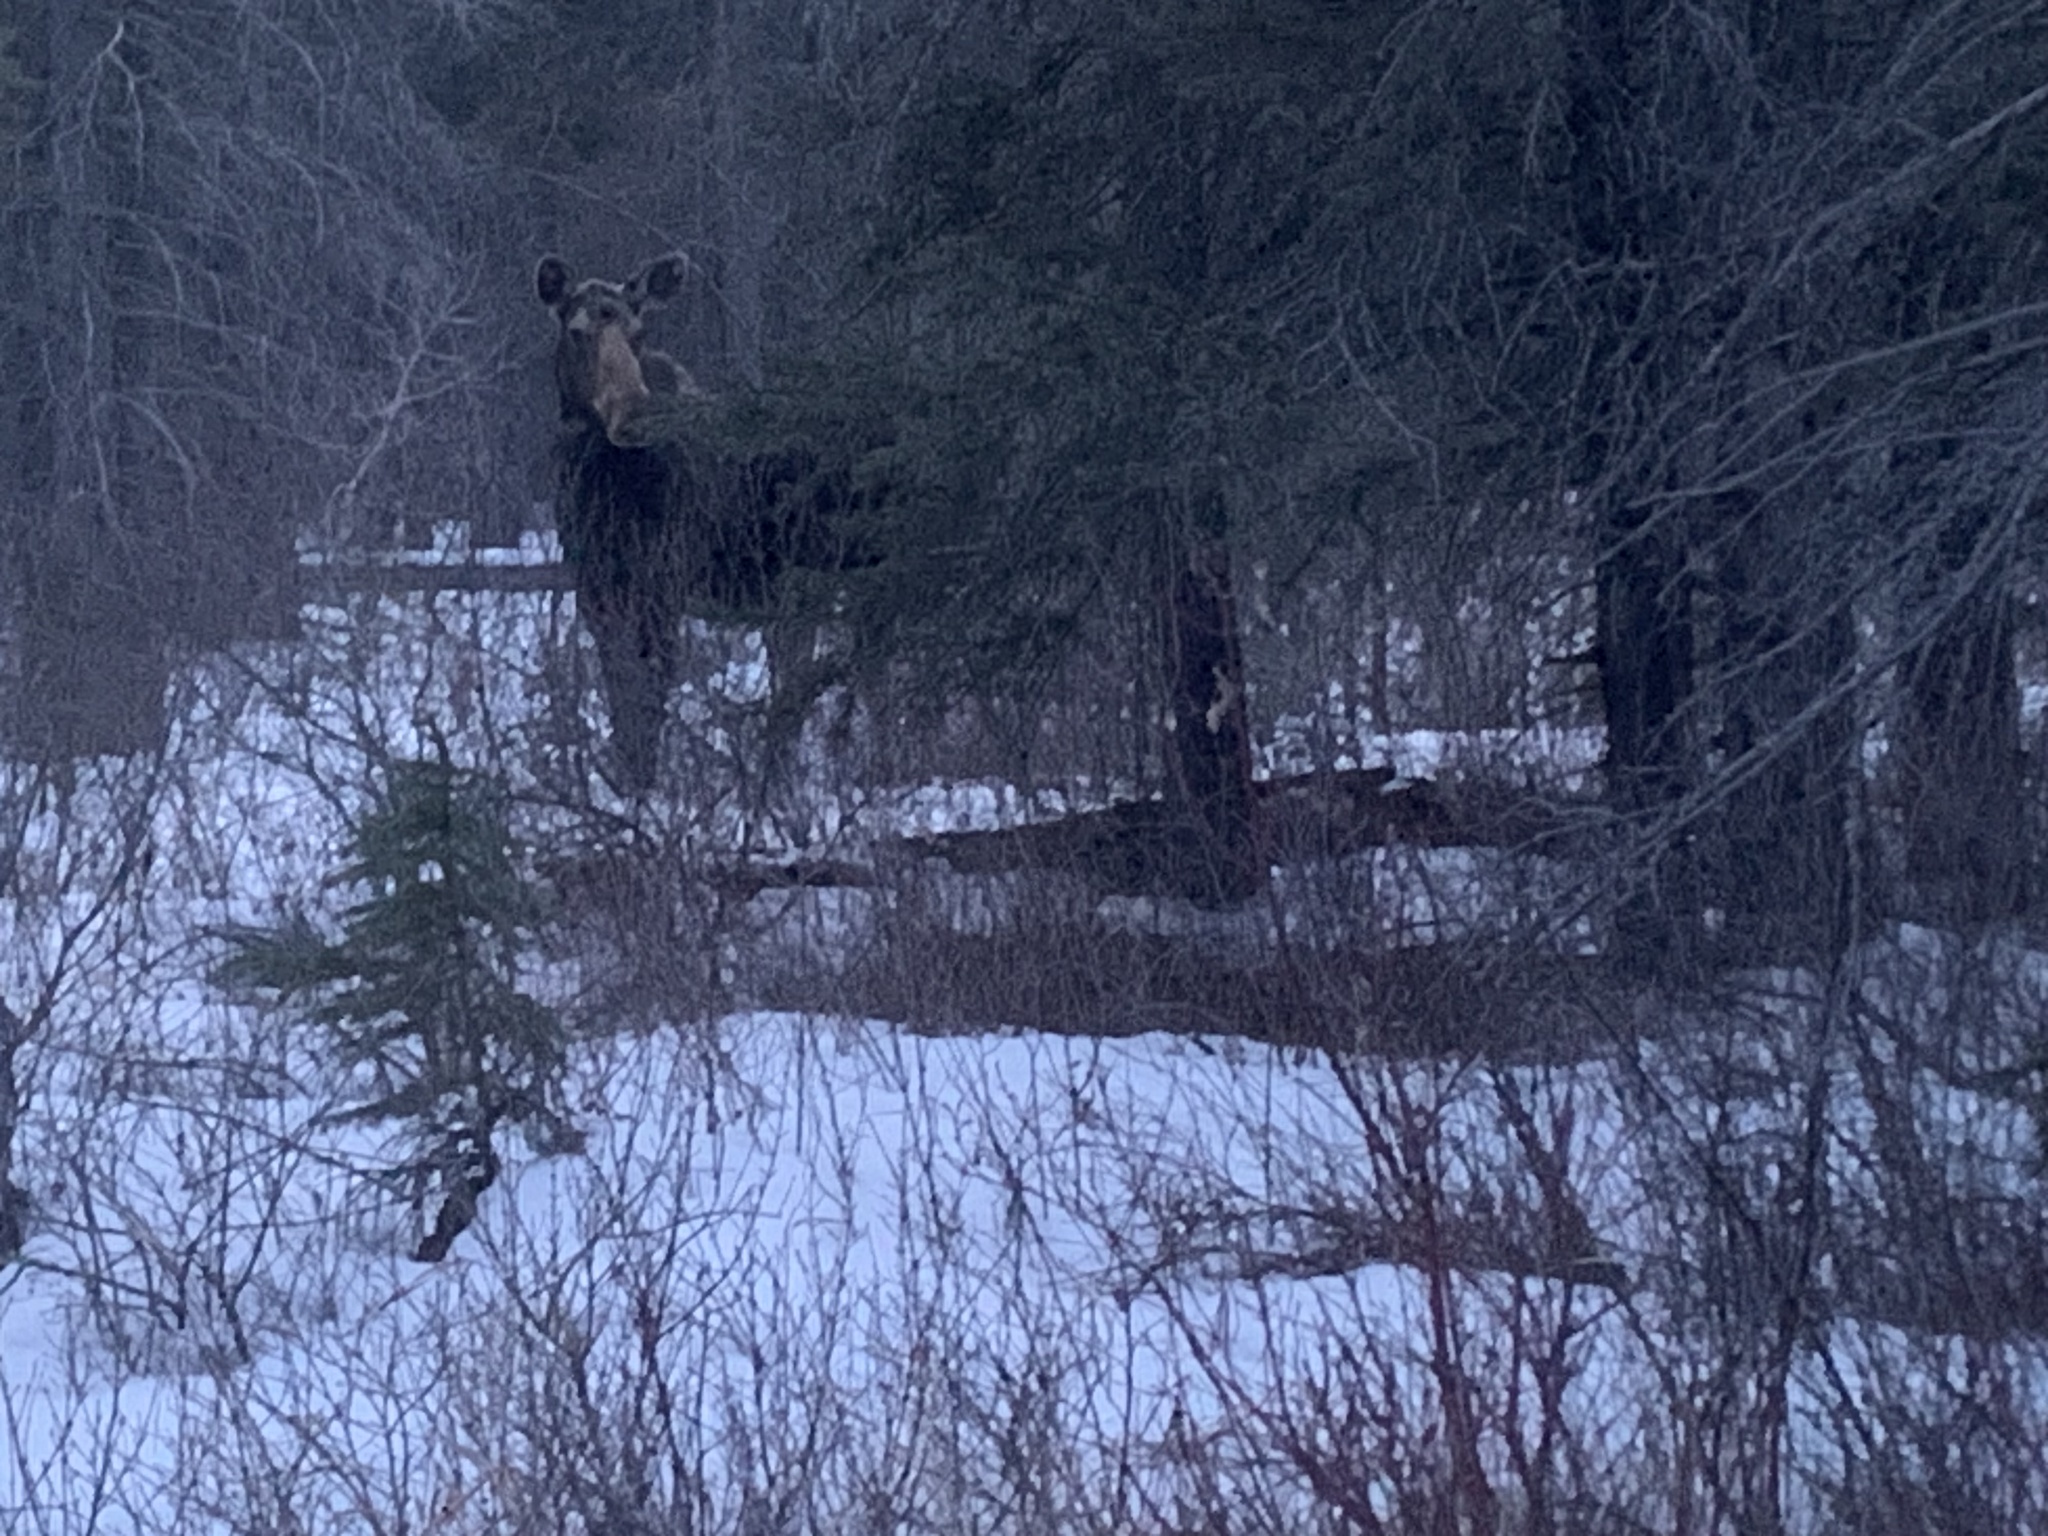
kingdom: Animalia
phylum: Chordata
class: Mammalia
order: Artiodactyla
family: Cervidae
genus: Alces
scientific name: Alces alces
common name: Moose
